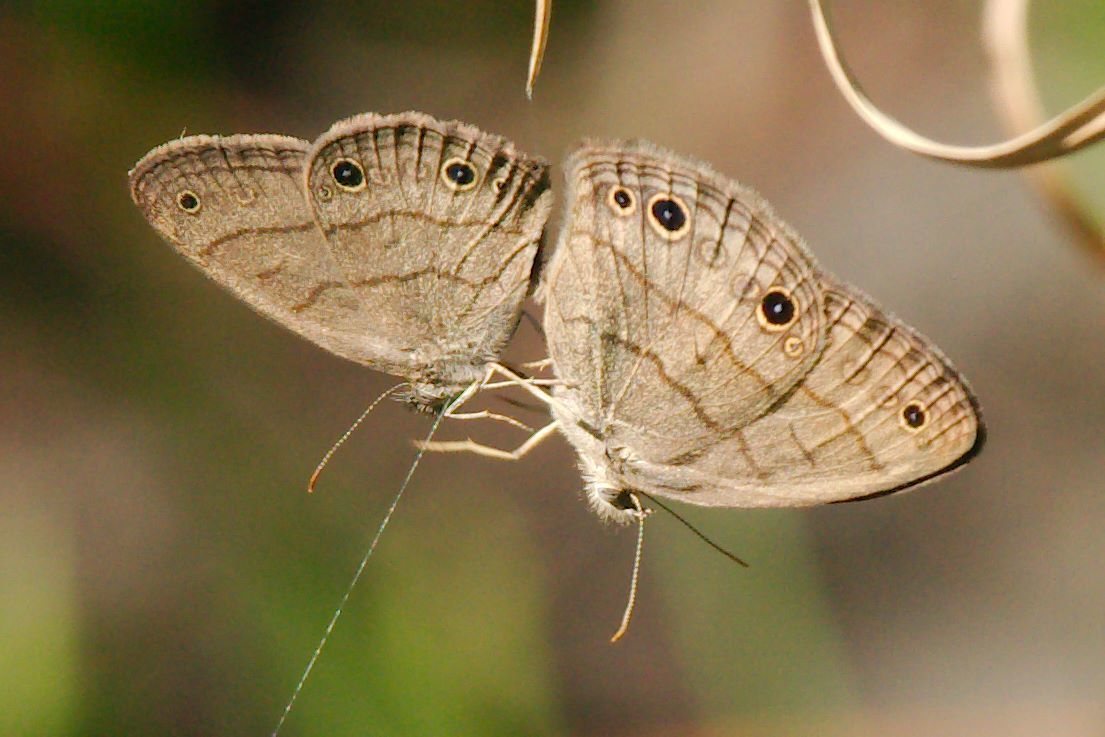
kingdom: Animalia
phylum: Arthropoda
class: Insecta
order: Lepidoptera
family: Nymphalidae
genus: Hermeuptychia
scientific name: Hermeuptychia hermes
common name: Hermes satyr
